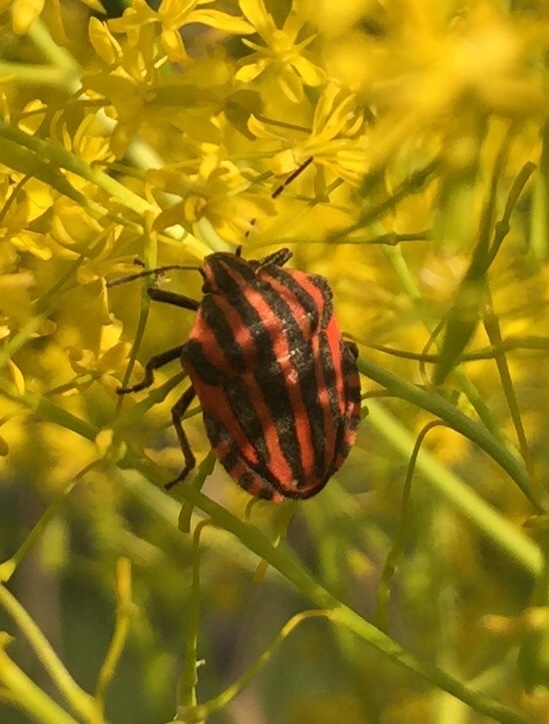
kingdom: Animalia
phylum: Arthropoda
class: Insecta
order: Hemiptera
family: Pentatomidae
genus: Graphosoma
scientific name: Graphosoma italicum
